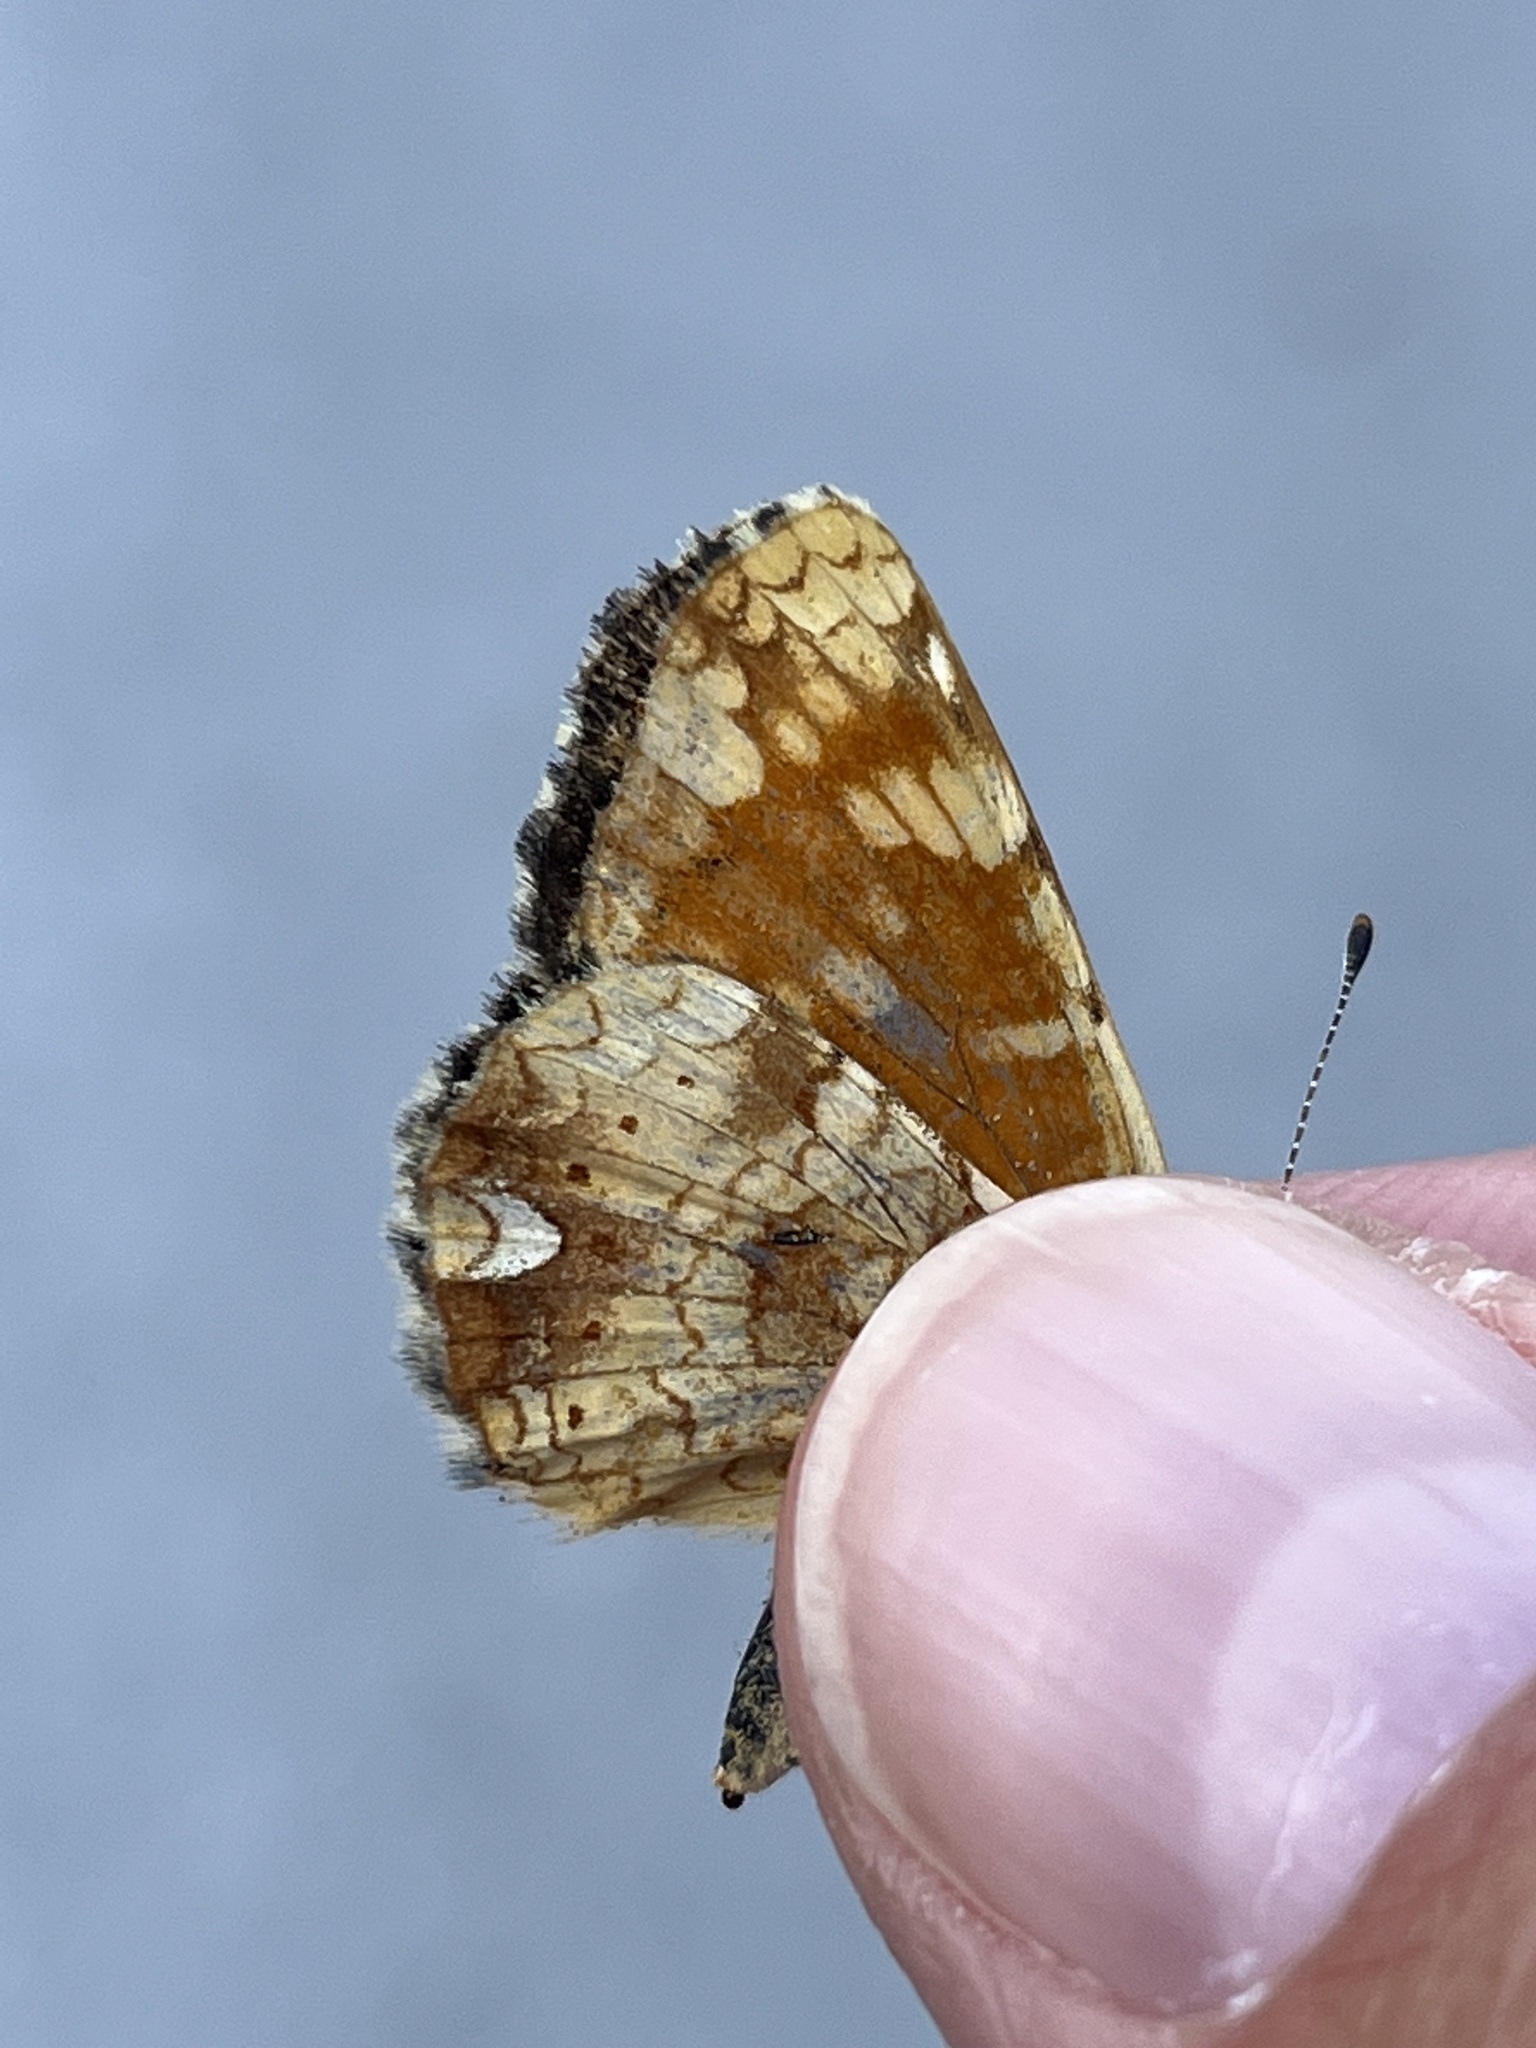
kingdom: Animalia
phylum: Arthropoda
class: Insecta
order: Lepidoptera
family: Nymphalidae
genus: Phyciodes
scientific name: Phyciodes tharos
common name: Pearl crescent
